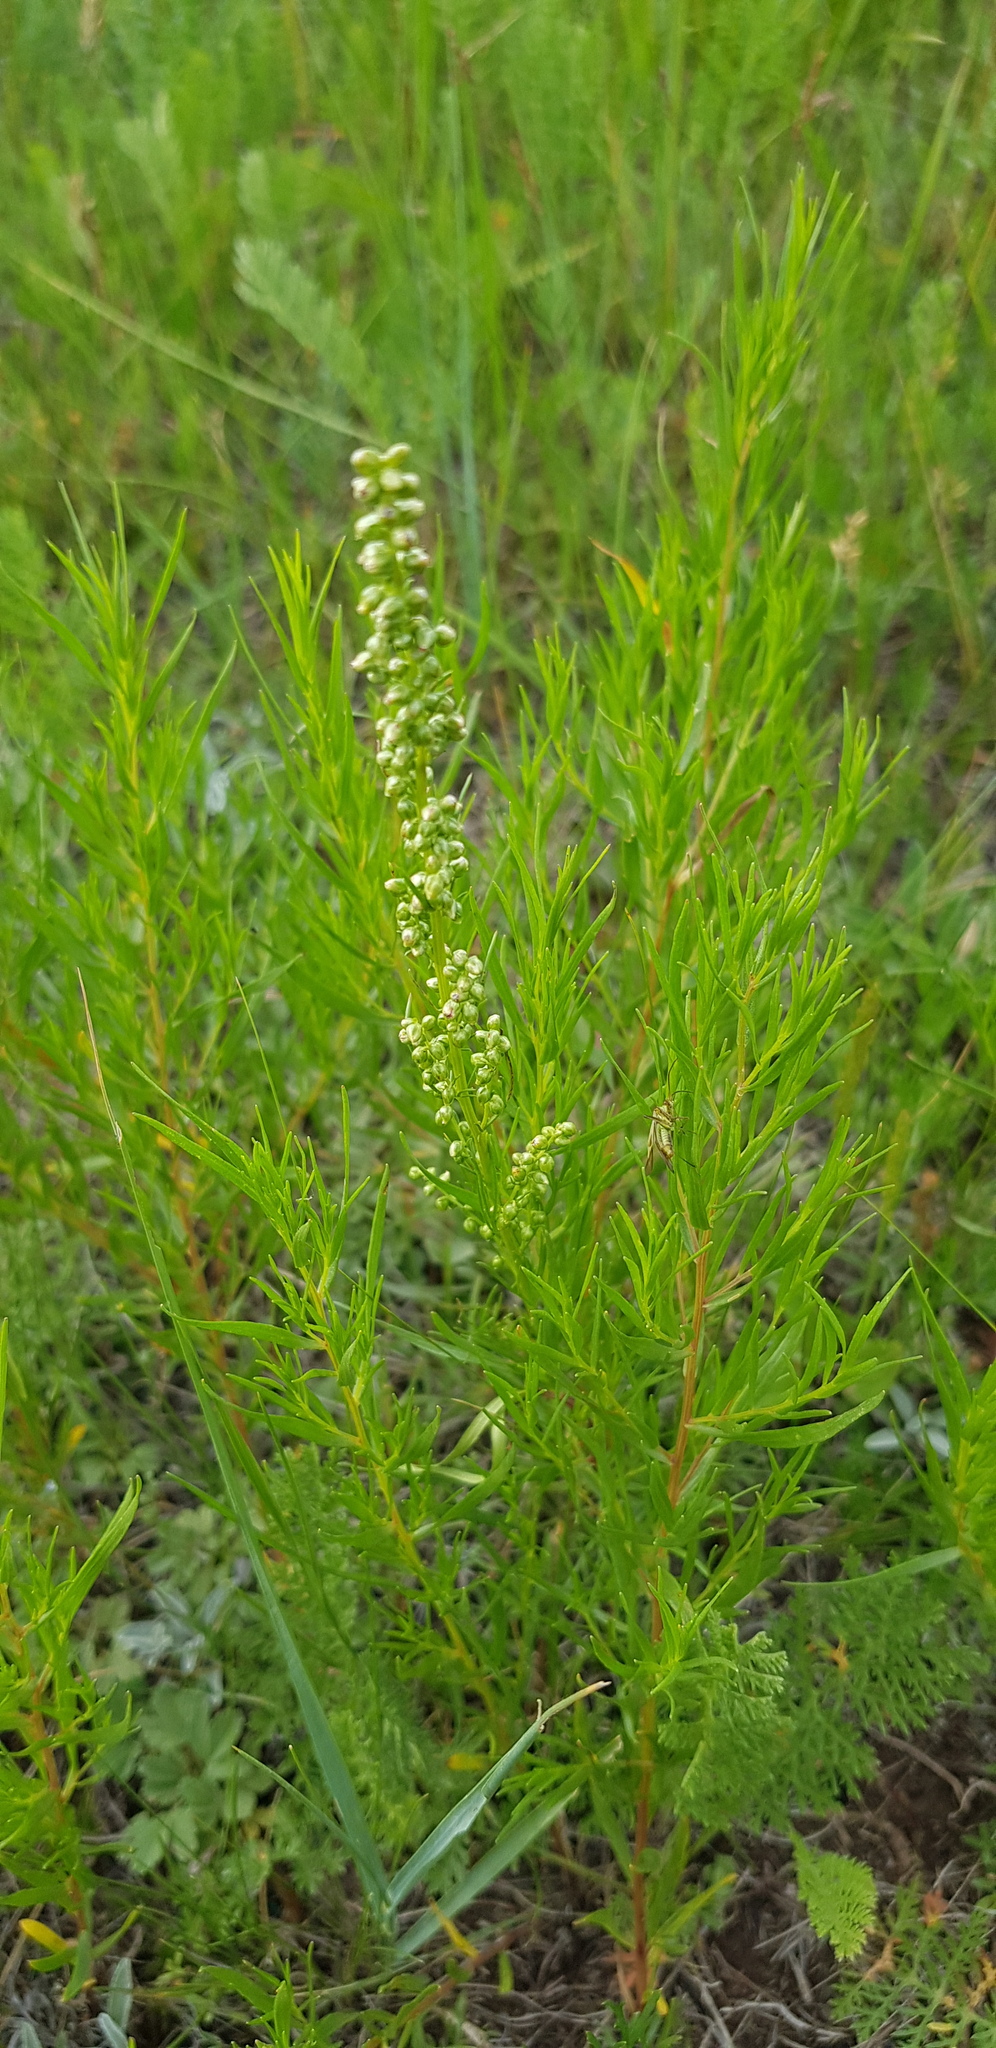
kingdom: Plantae
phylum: Tracheophyta
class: Magnoliopsida
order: Asterales
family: Asteraceae
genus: Artemisia
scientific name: Artemisia dracunculus
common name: Tarragon
